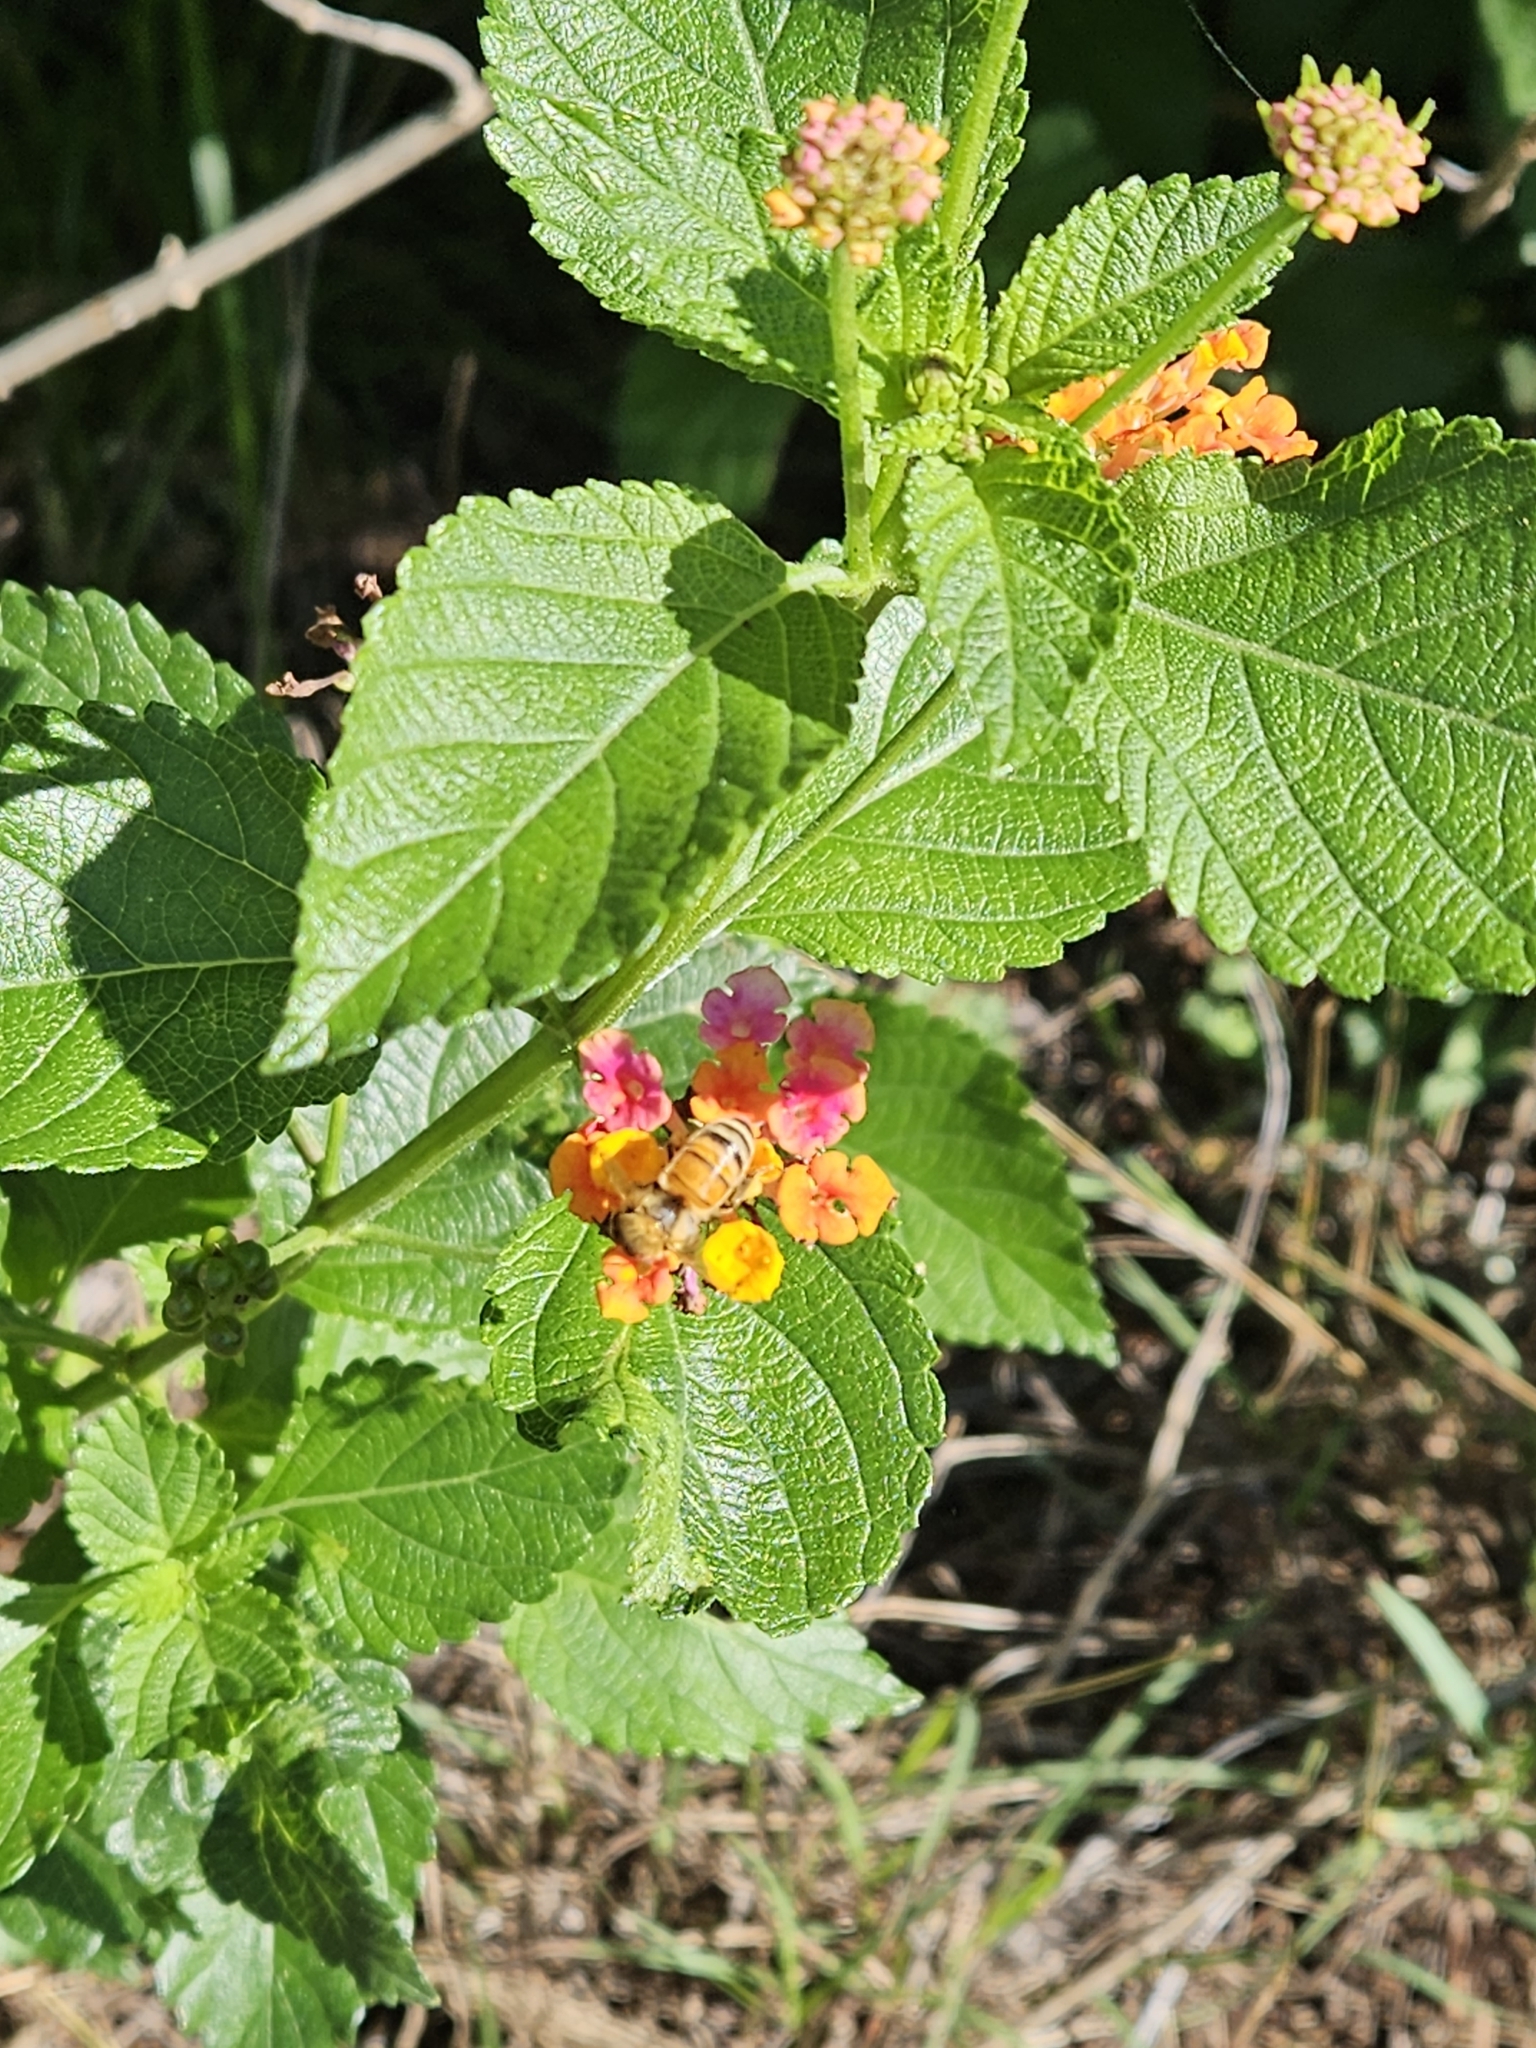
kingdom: Animalia
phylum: Arthropoda
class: Insecta
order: Hymenoptera
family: Apidae
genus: Apis
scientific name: Apis mellifera
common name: Honey bee
